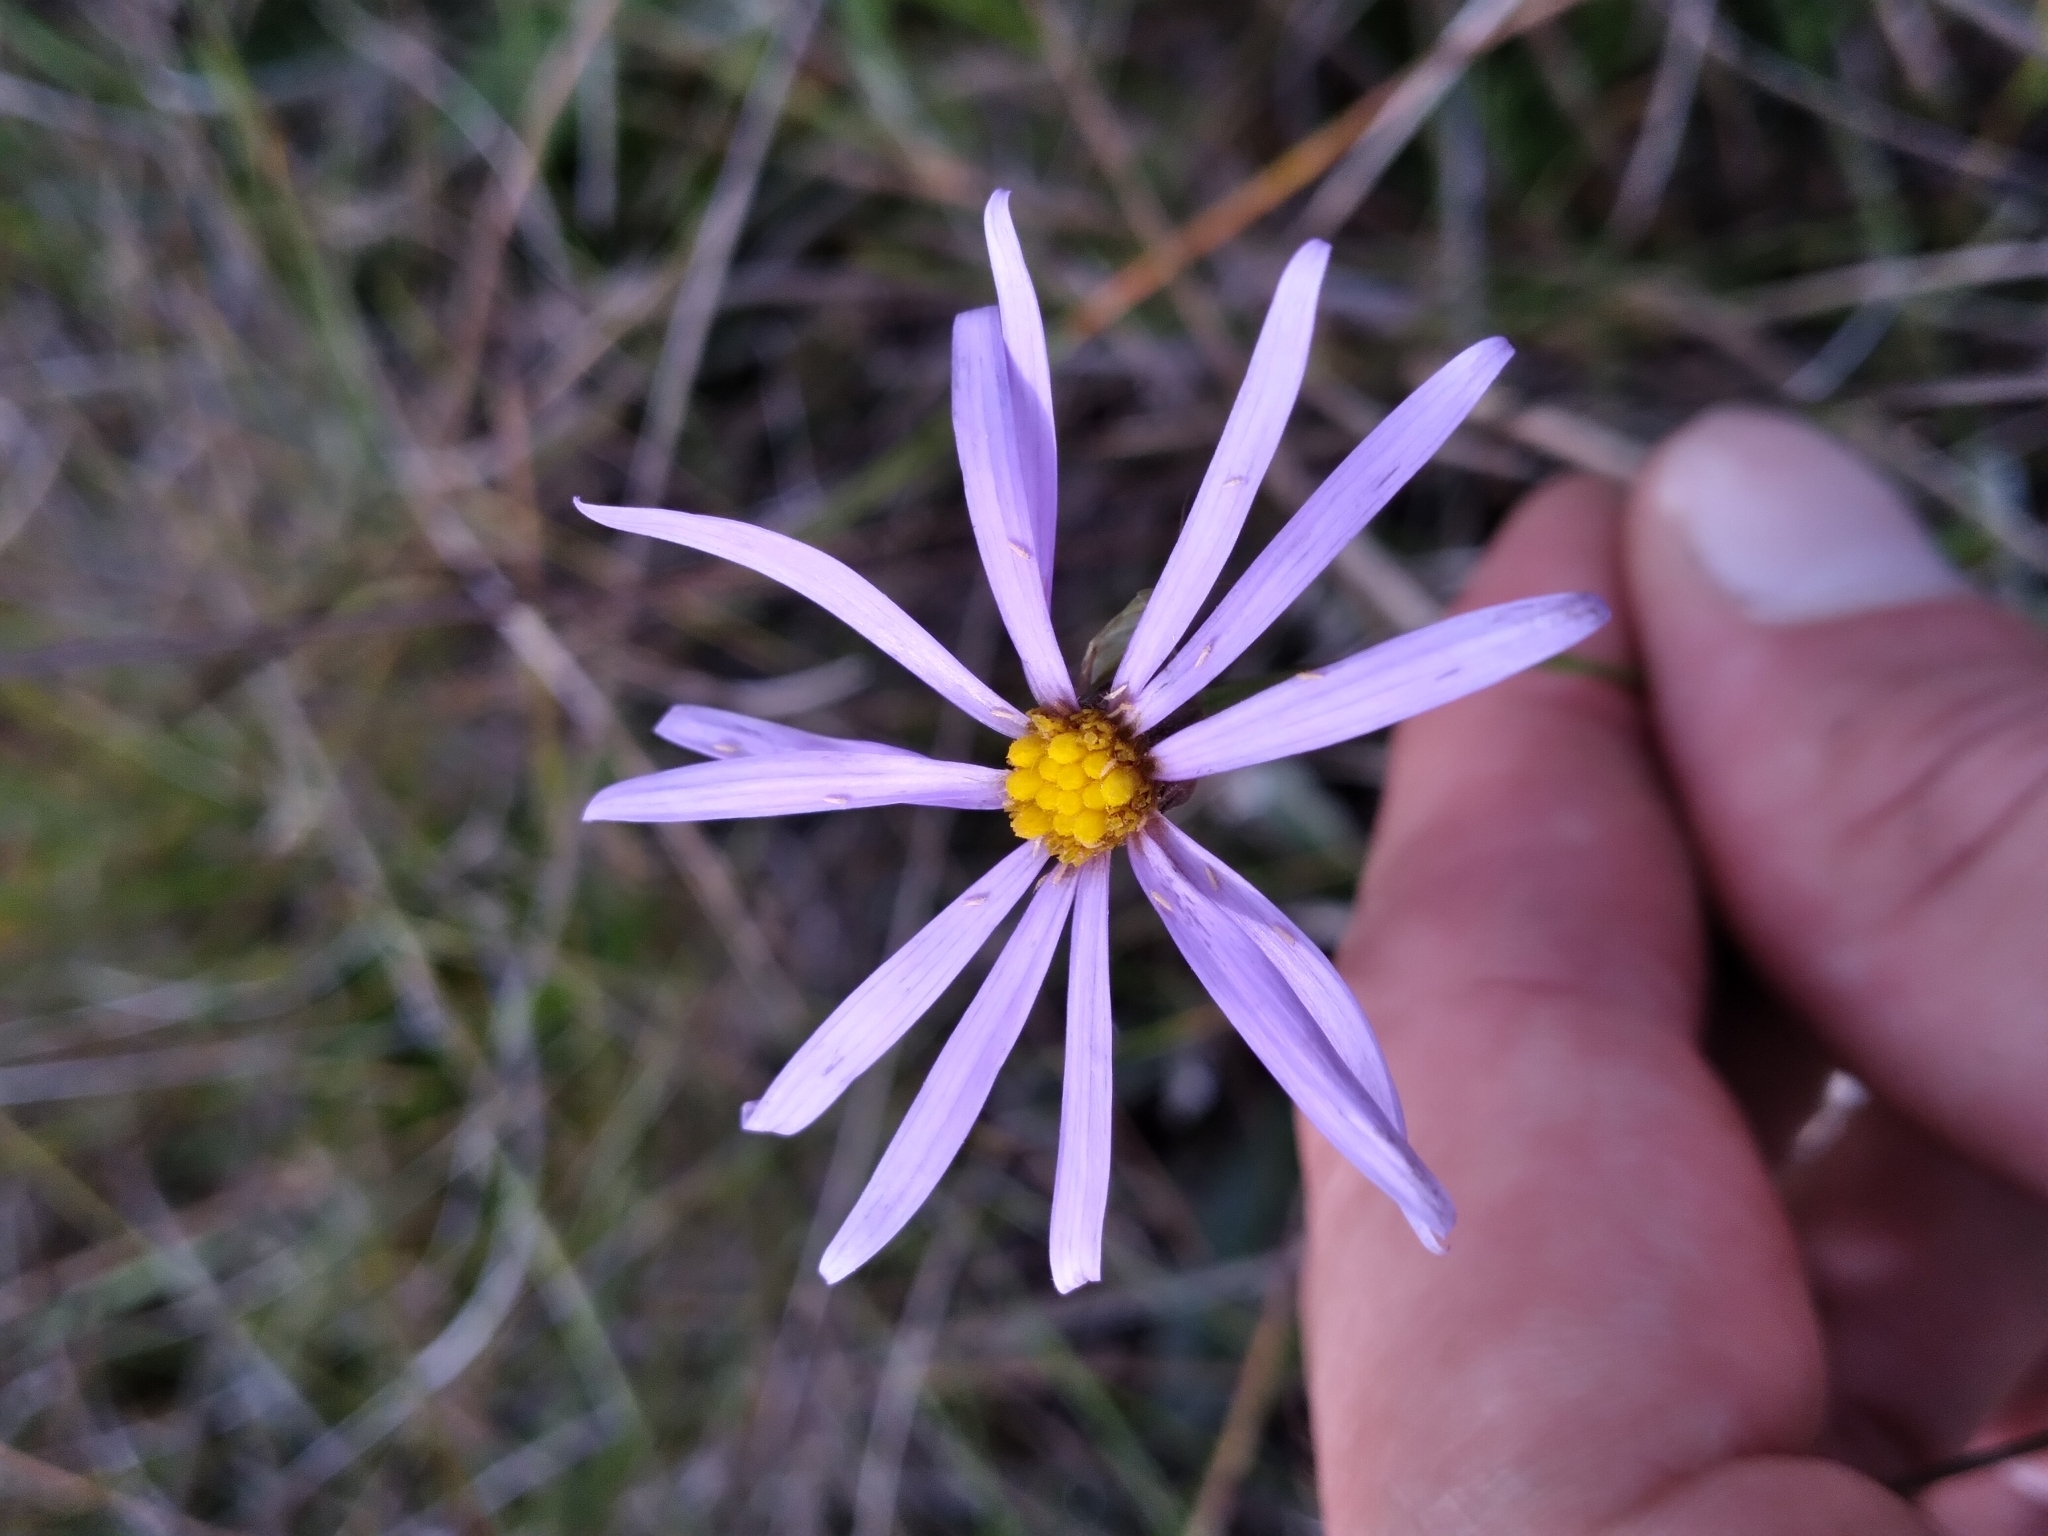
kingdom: Plantae
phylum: Tracheophyta
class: Magnoliopsida
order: Asterales
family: Asteraceae
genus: Symphyotrichum
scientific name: Symphyotrichum chapmanii
